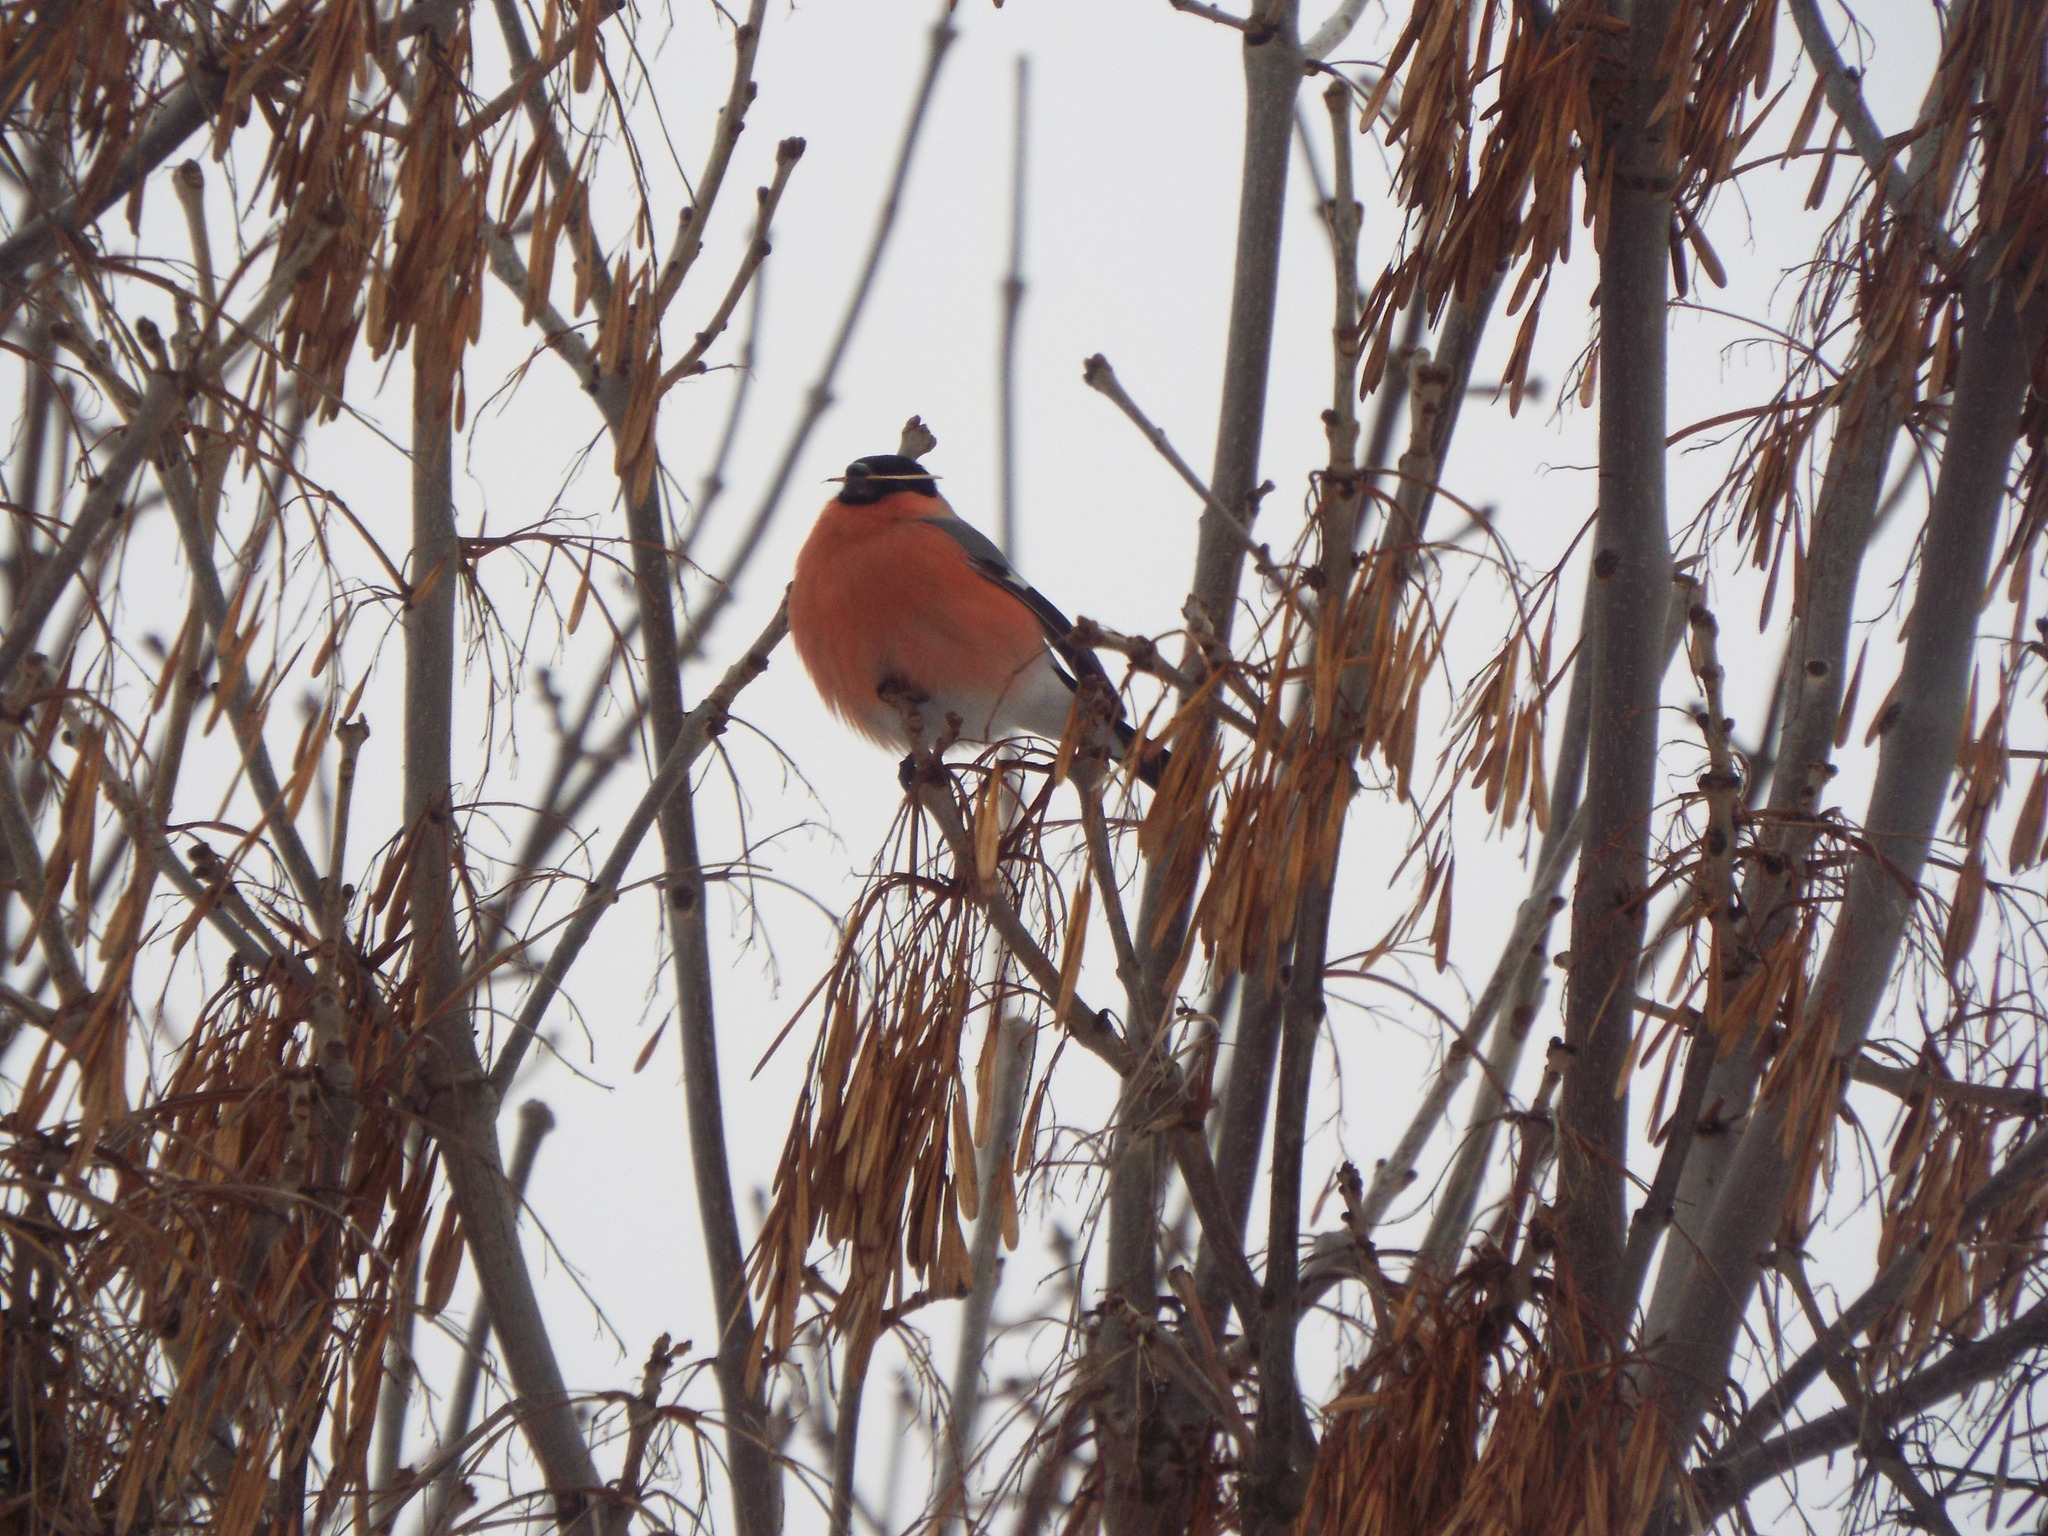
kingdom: Animalia
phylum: Chordata
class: Aves
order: Passeriformes
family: Fringillidae
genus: Pyrrhula
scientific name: Pyrrhula pyrrhula
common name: Eurasian bullfinch
